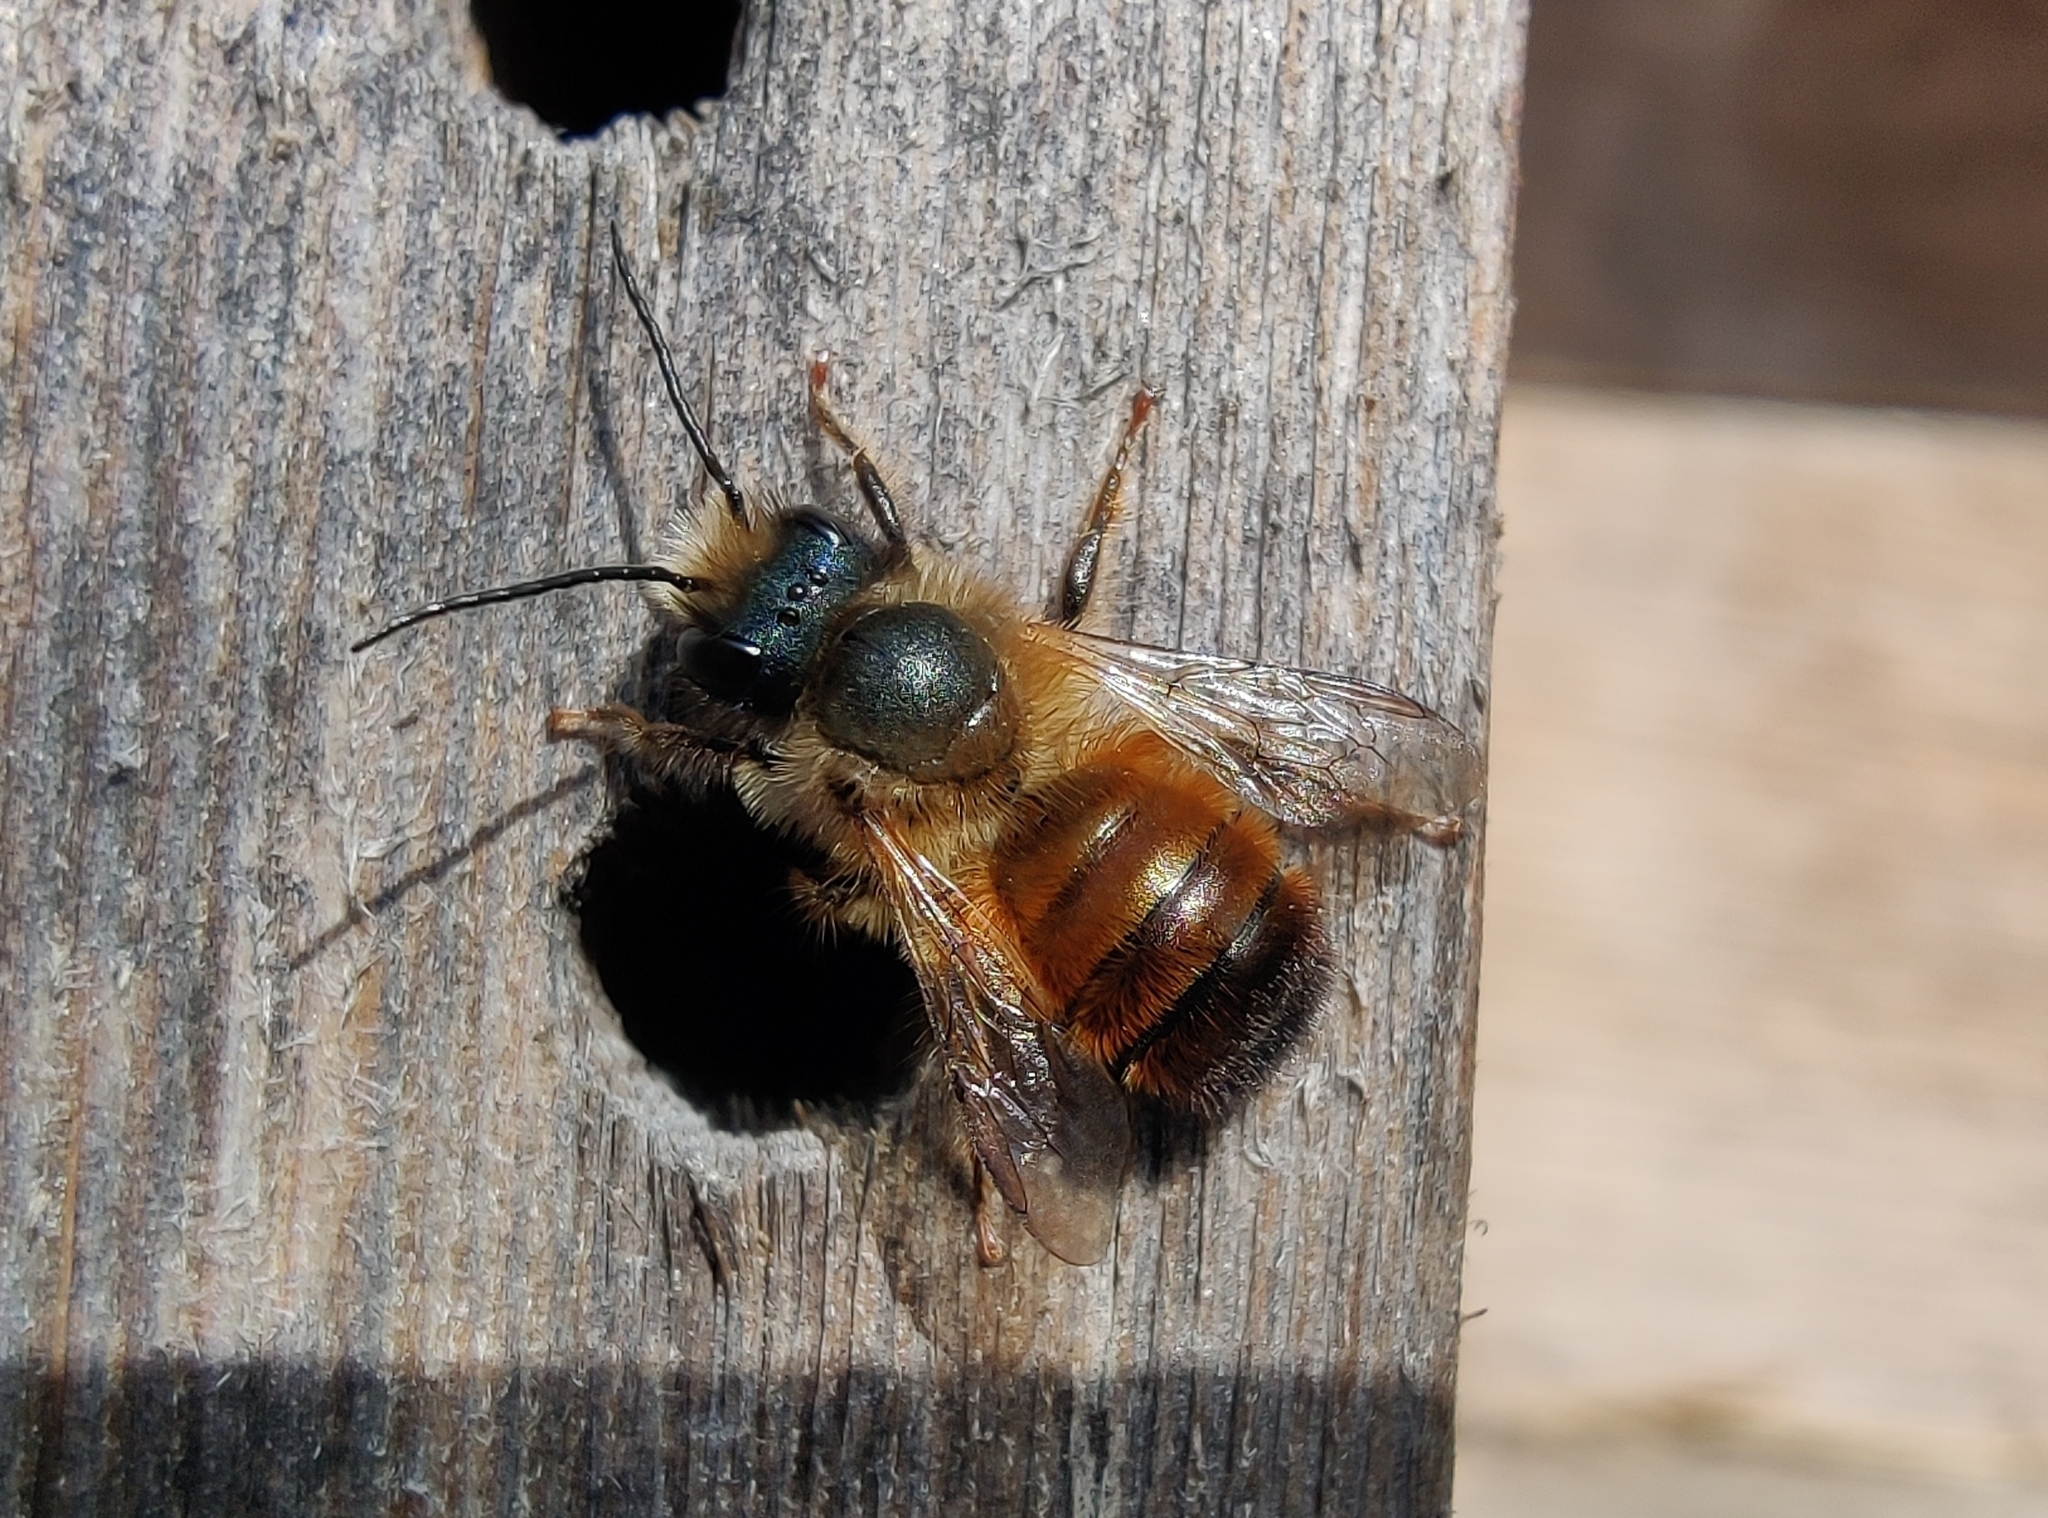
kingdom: Animalia
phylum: Arthropoda
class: Insecta
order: Hymenoptera
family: Megachilidae
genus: Osmia
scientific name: Osmia bicornis
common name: Red mason bee
